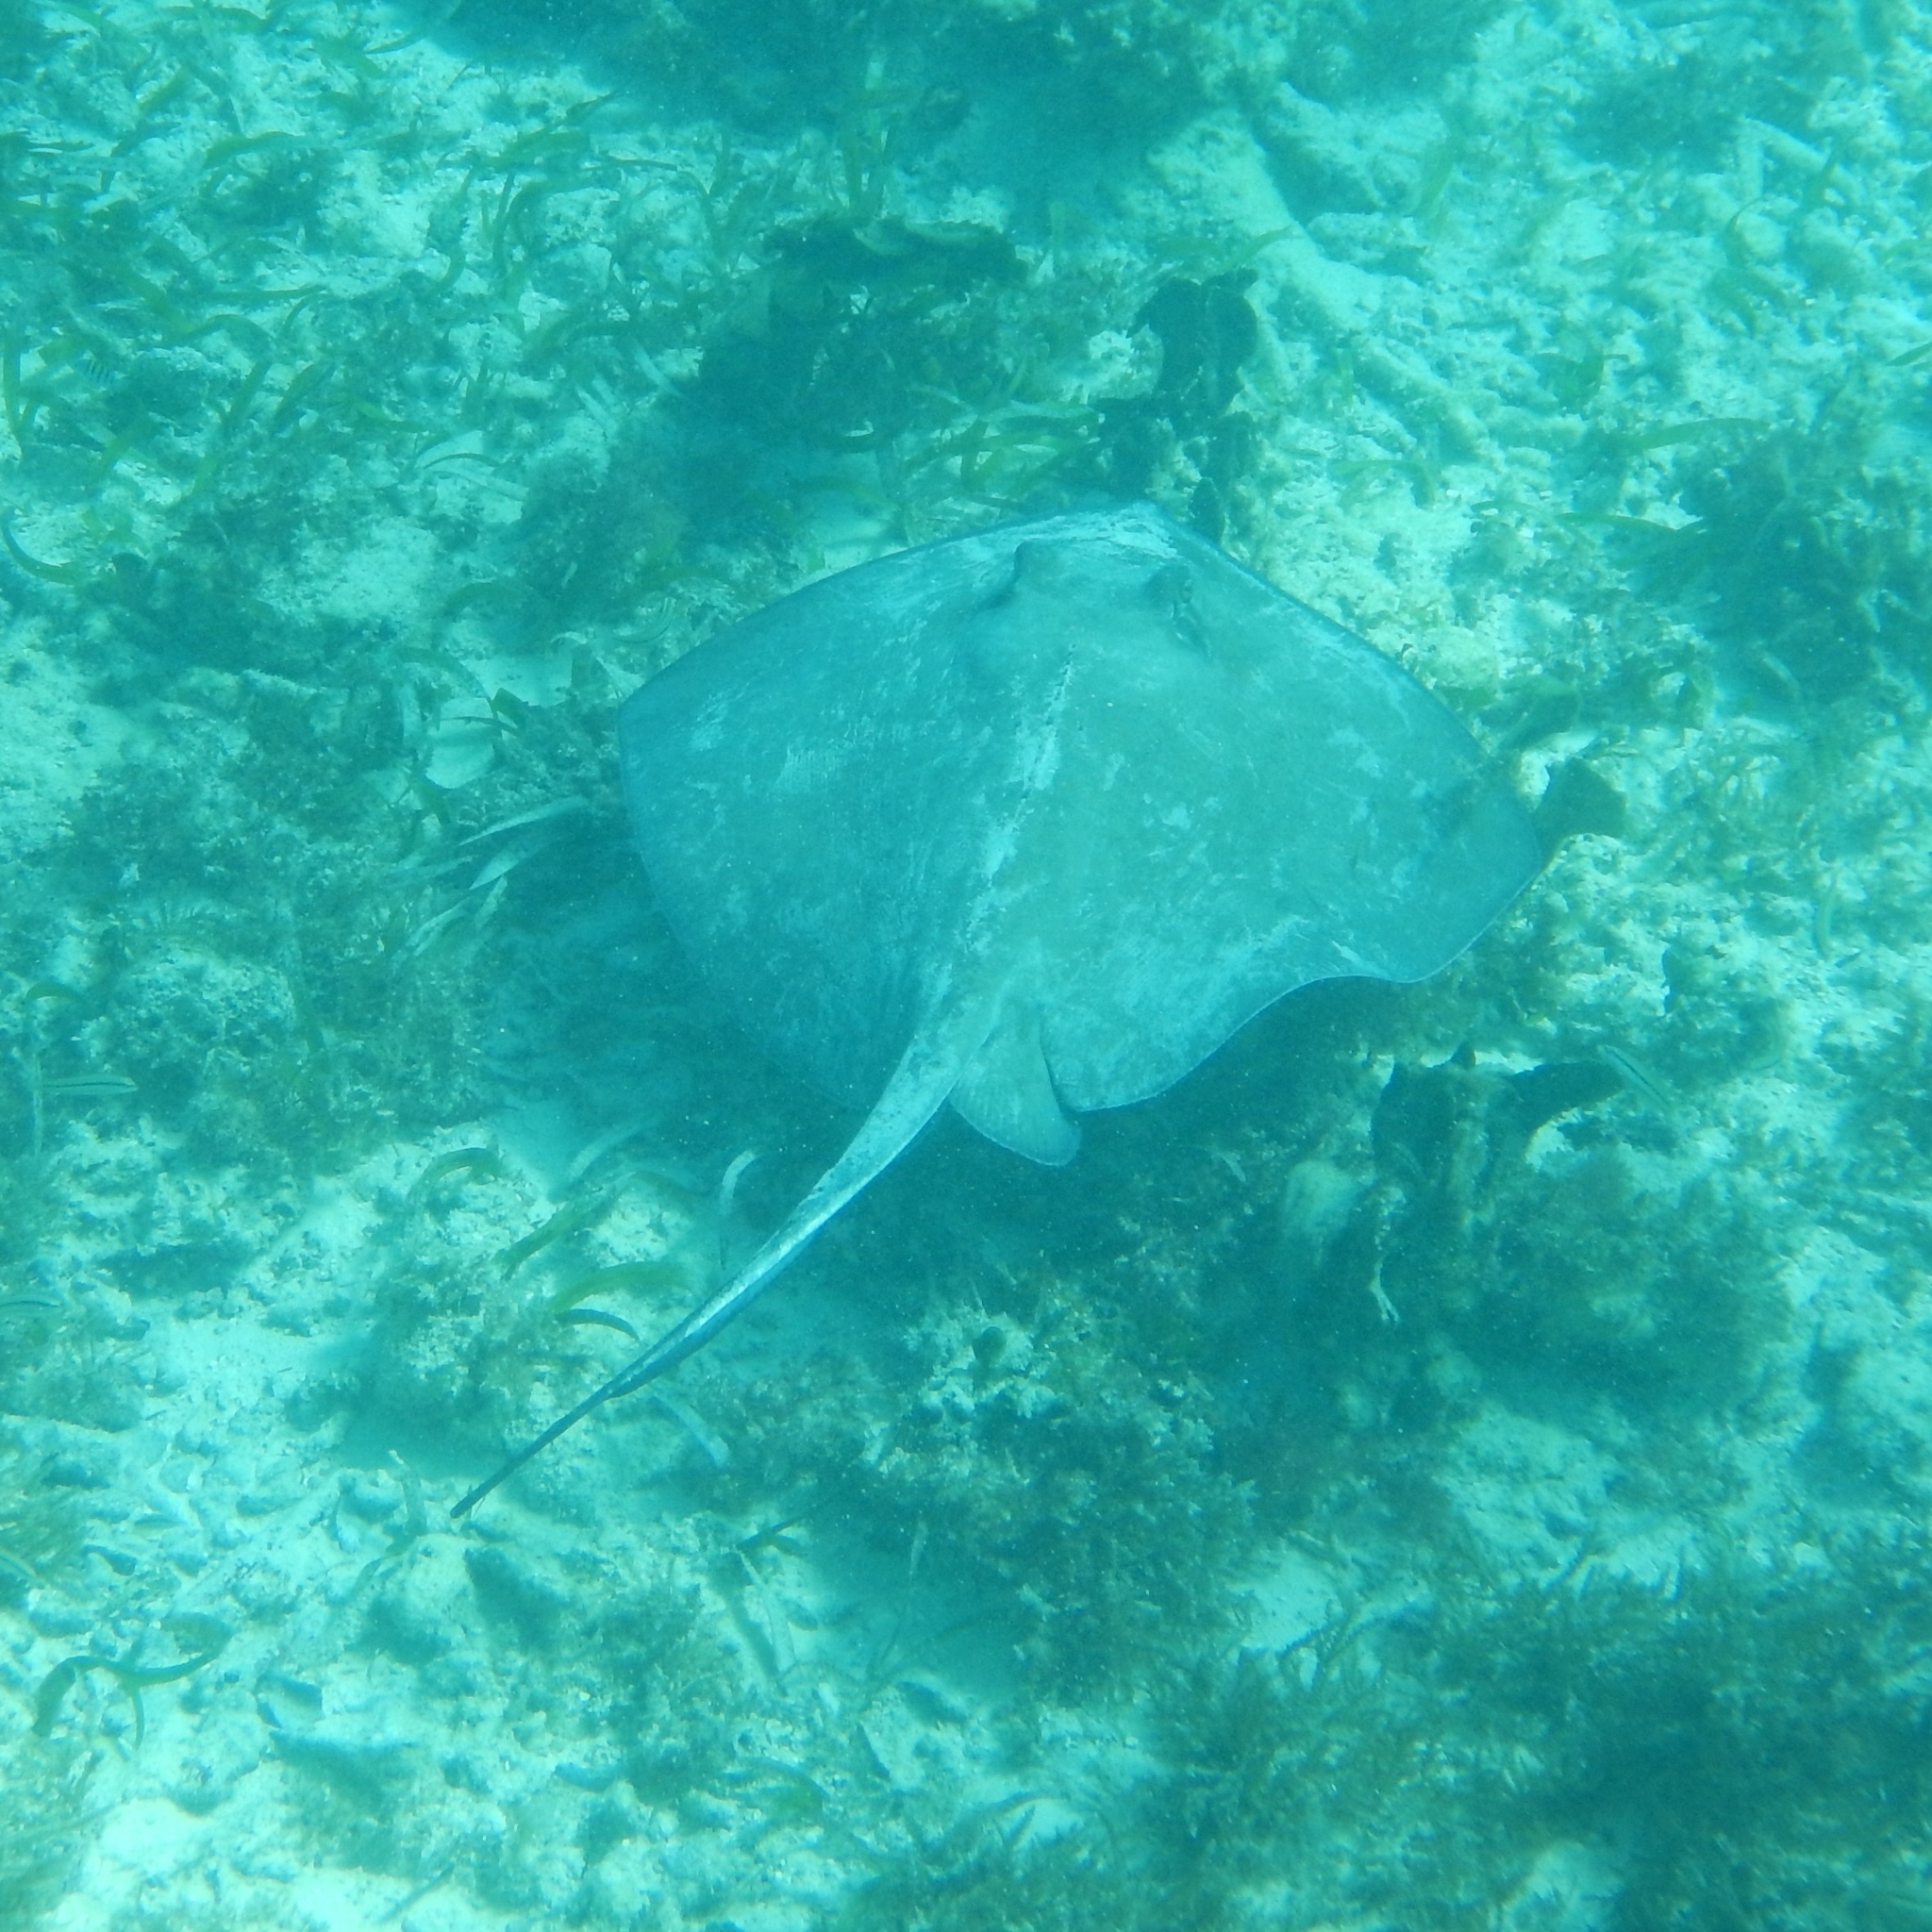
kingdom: Animalia
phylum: Chordata
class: Elasmobranchii
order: Myliobatiformes
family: Dasyatidae
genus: Hypanus
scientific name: Hypanus americanus
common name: Southern stingray
